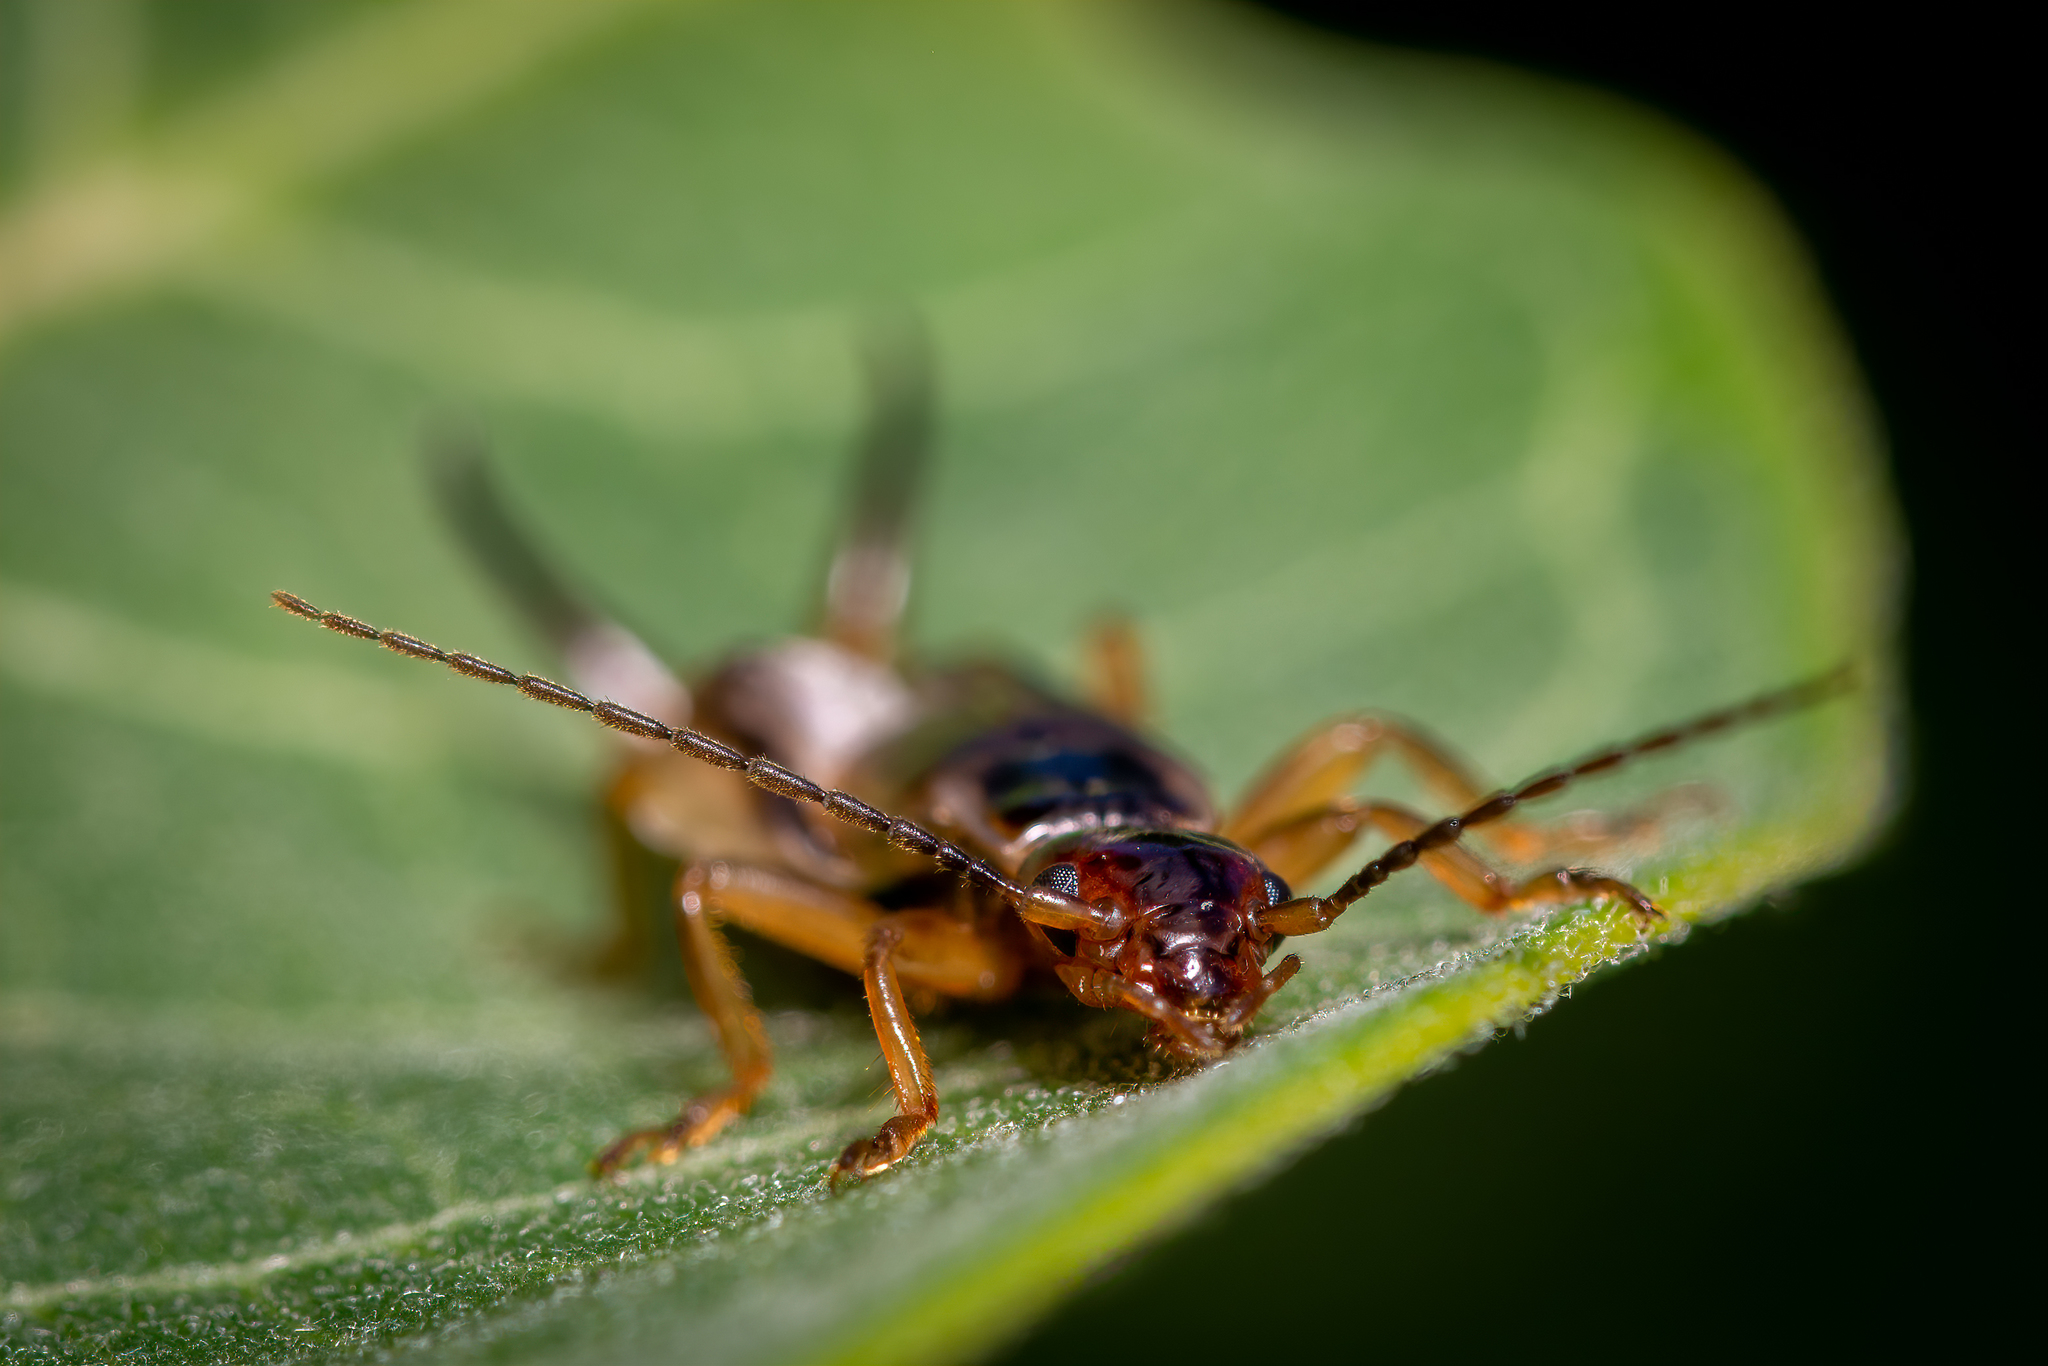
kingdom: Animalia
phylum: Arthropoda
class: Insecta
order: Dermaptera
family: Forficulidae
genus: Forficula
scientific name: Forficula
